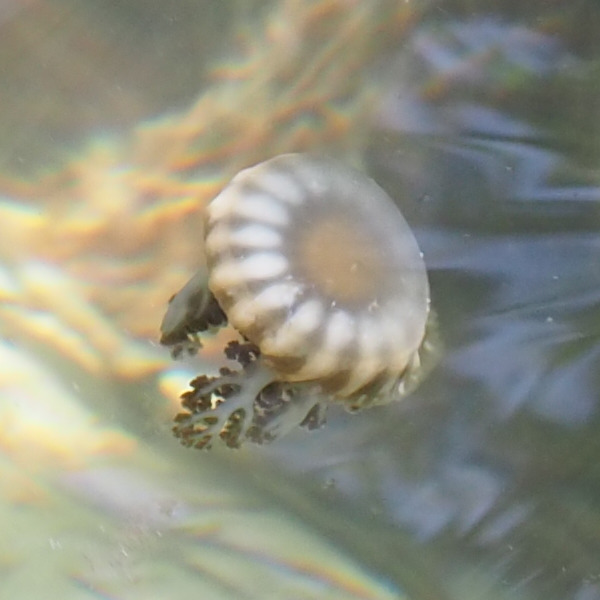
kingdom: Animalia
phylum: Cnidaria
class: Scyphozoa
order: Rhizostomeae
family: Cassiopeidae
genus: Cassiopea
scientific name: Cassiopea andromeda
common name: Upside-down jellyfish
